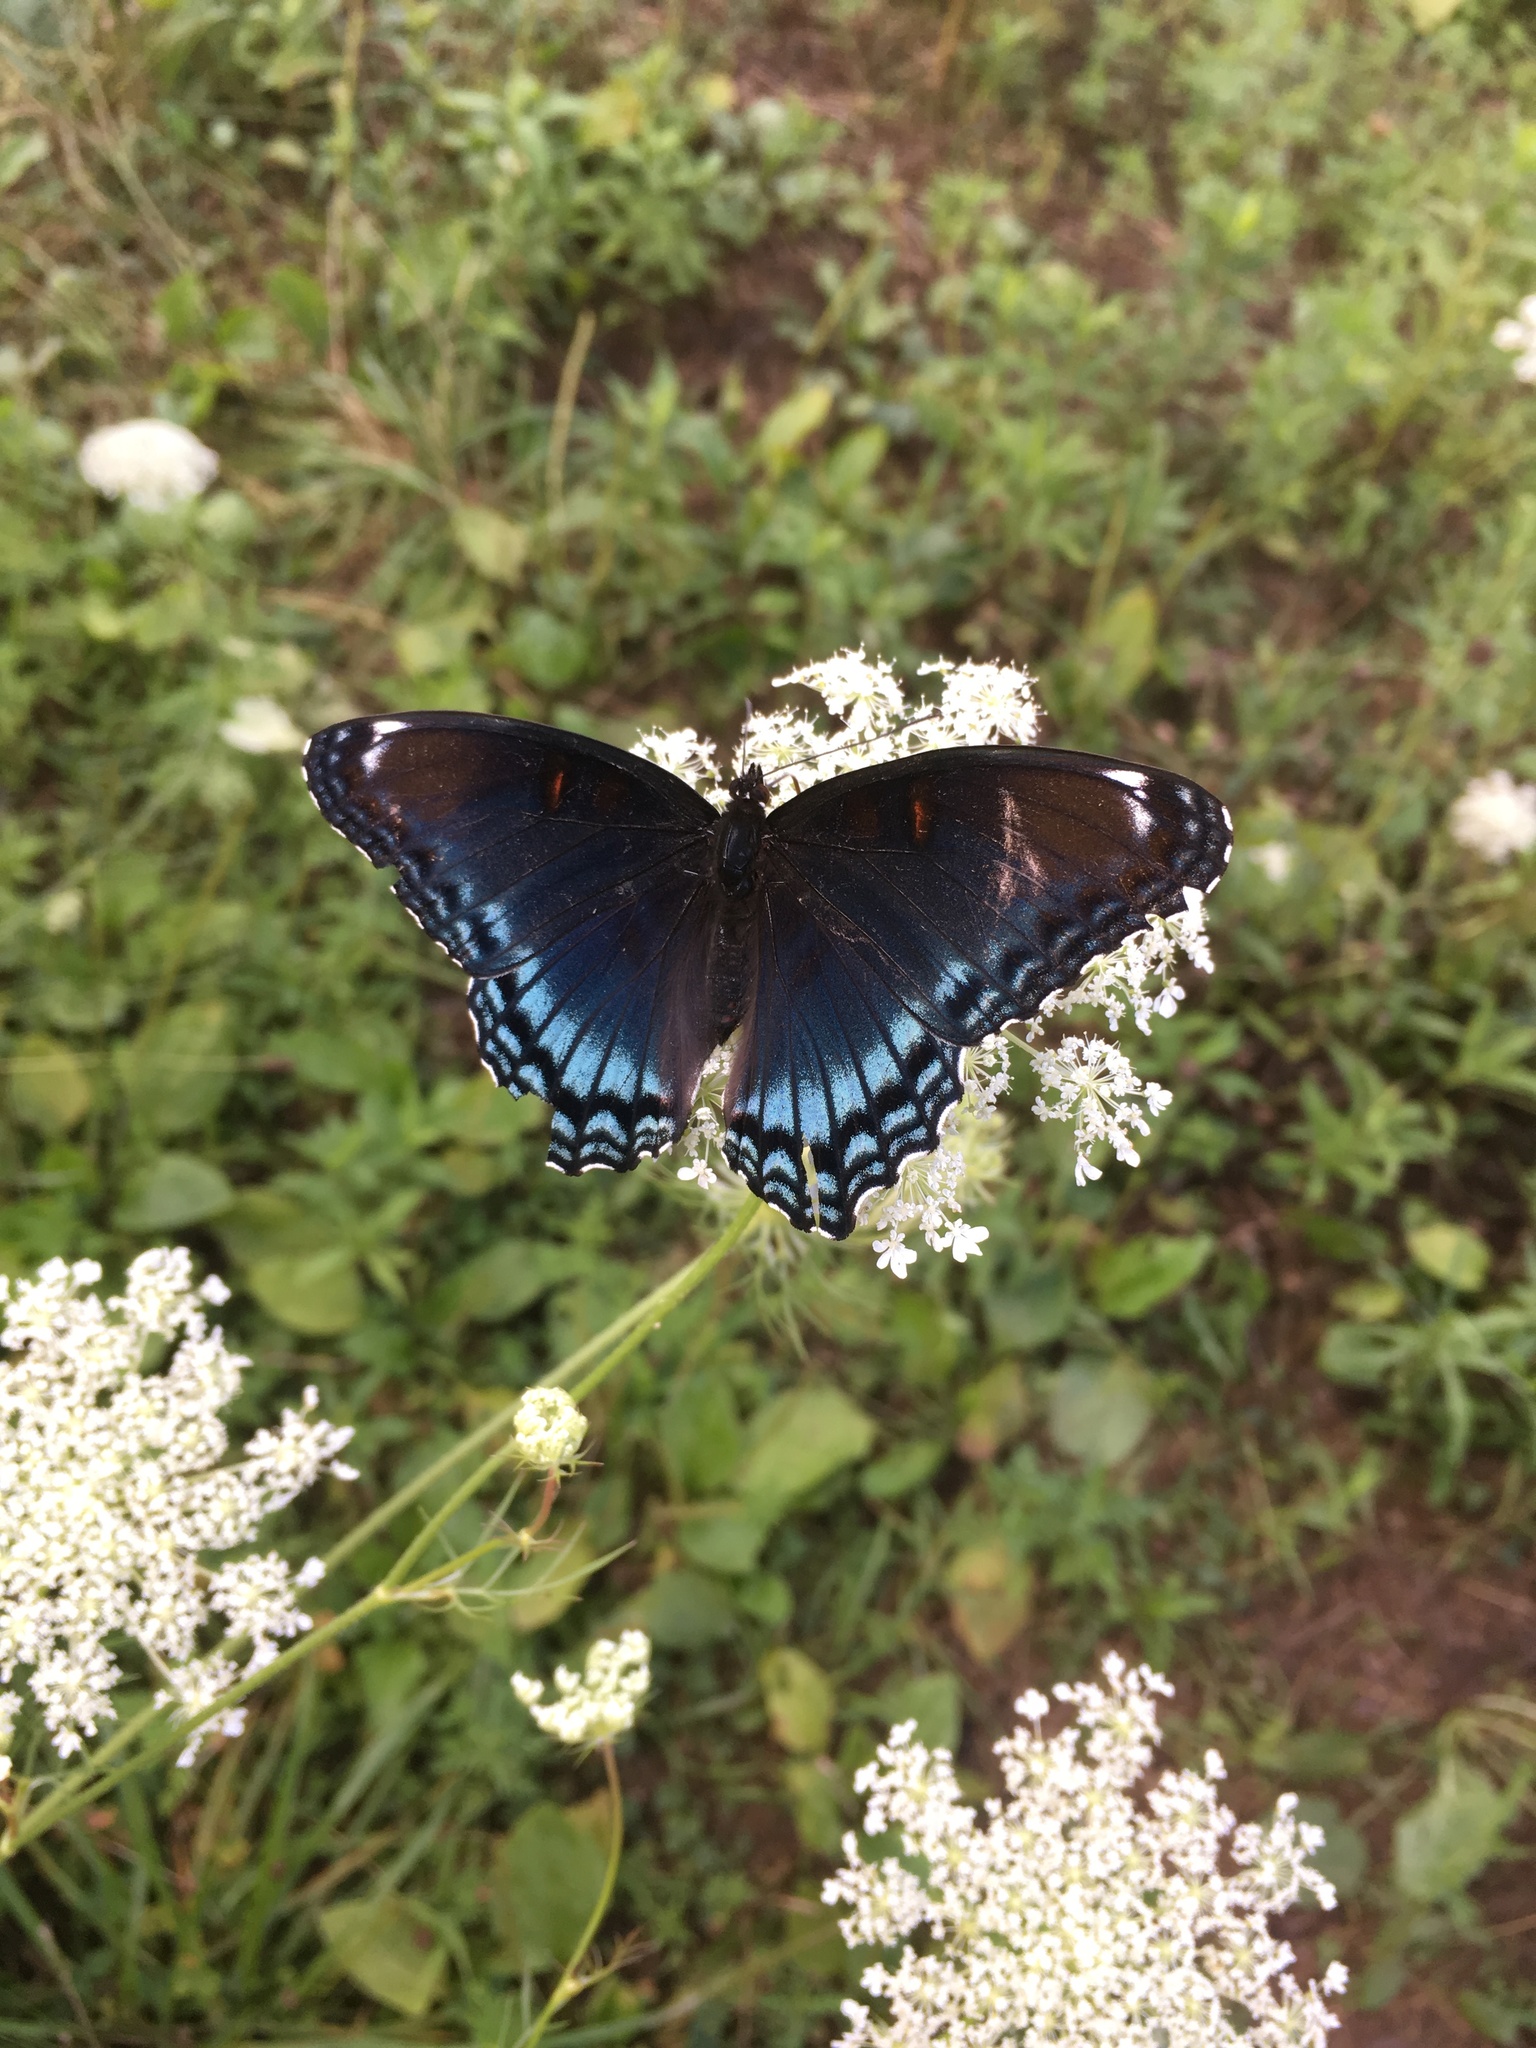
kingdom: Animalia
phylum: Arthropoda
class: Insecta
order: Lepidoptera
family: Nymphalidae
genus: Limenitis
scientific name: Limenitis astyanax
